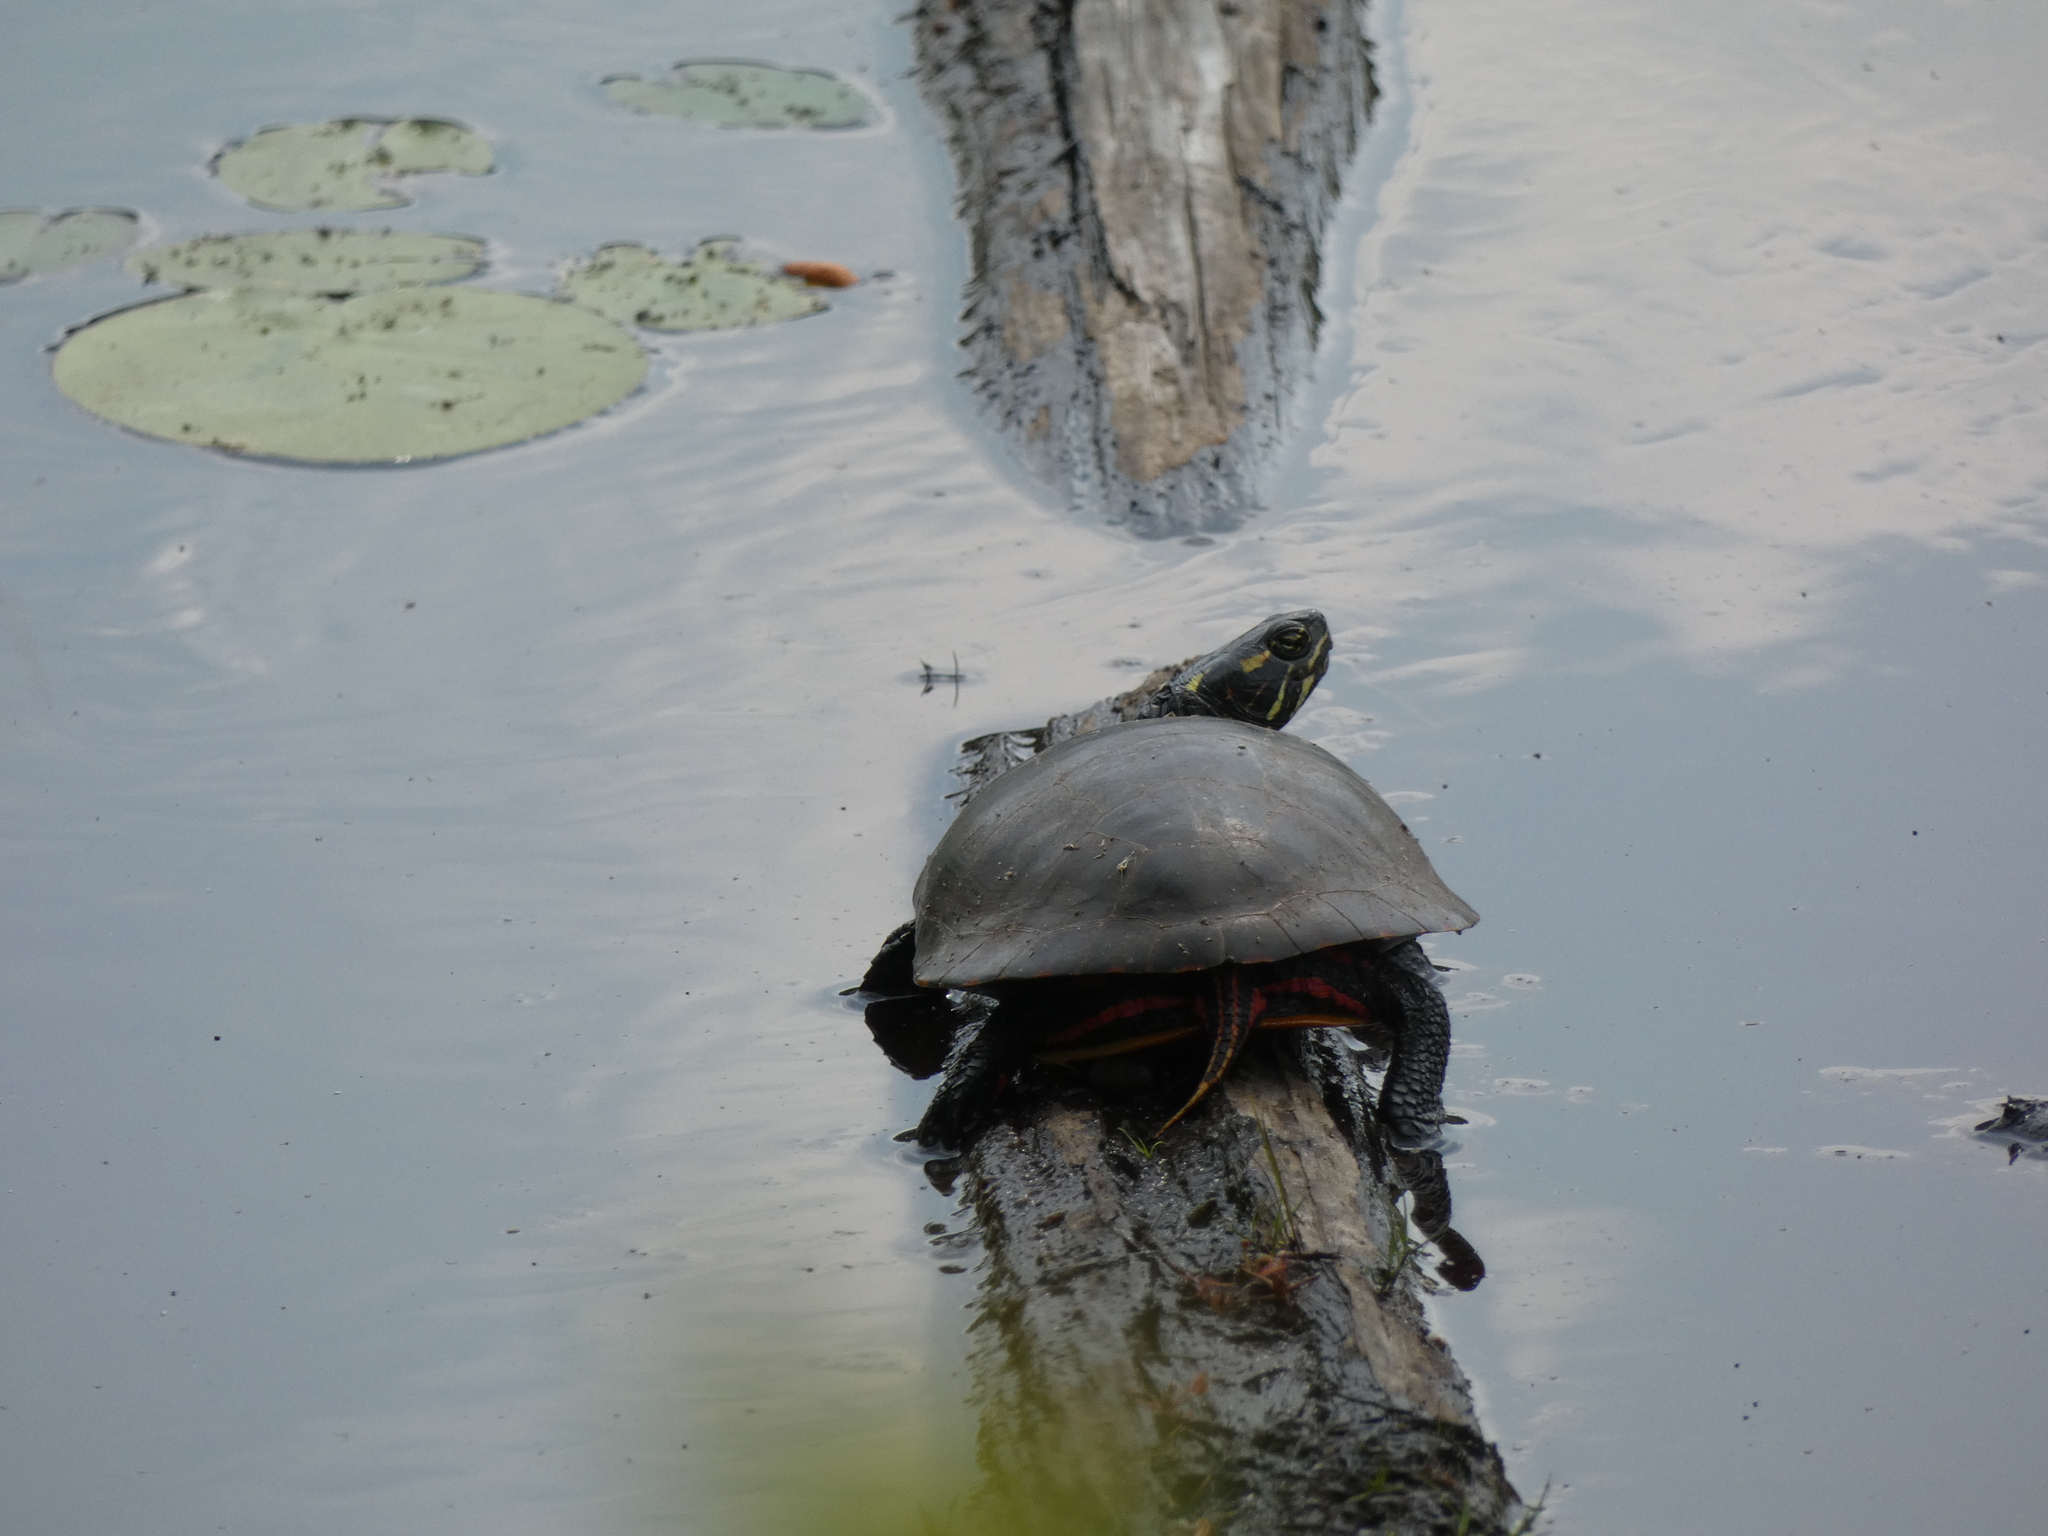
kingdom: Animalia
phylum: Chordata
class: Testudines
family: Emydidae
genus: Chrysemys
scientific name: Chrysemys picta
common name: Painted turtle
